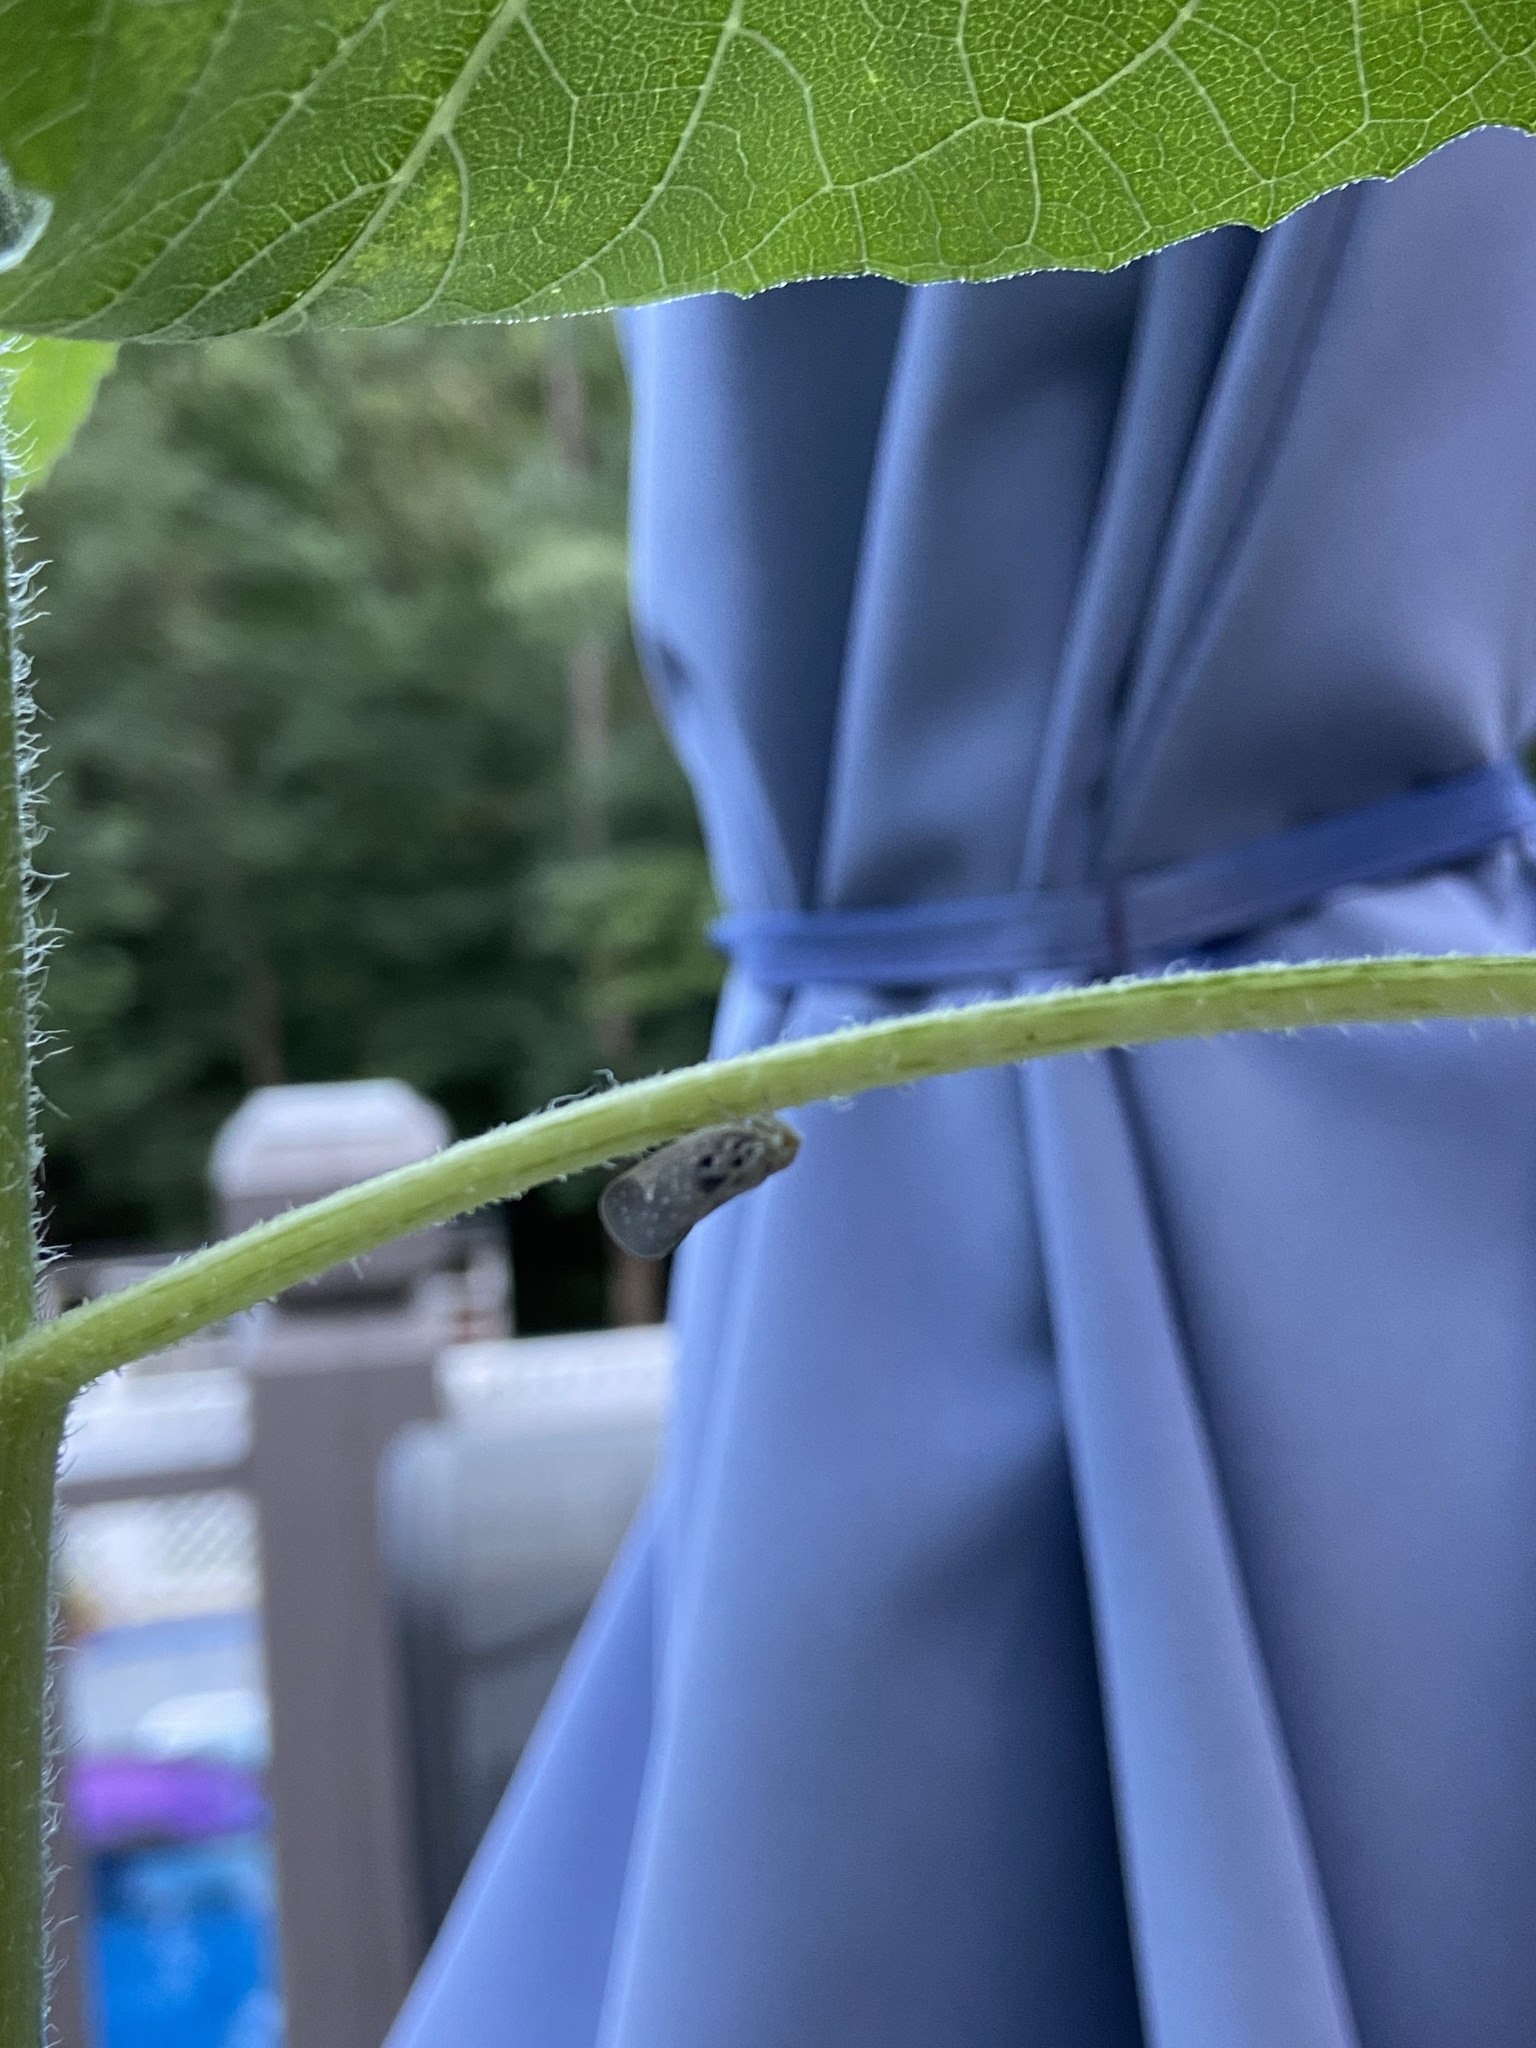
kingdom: Animalia
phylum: Arthropoda
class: Insecta
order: Hemiptera
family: Flatidae
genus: Metcalfa
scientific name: Metcalfa pruinosa
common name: Citrus flatid planthopper
